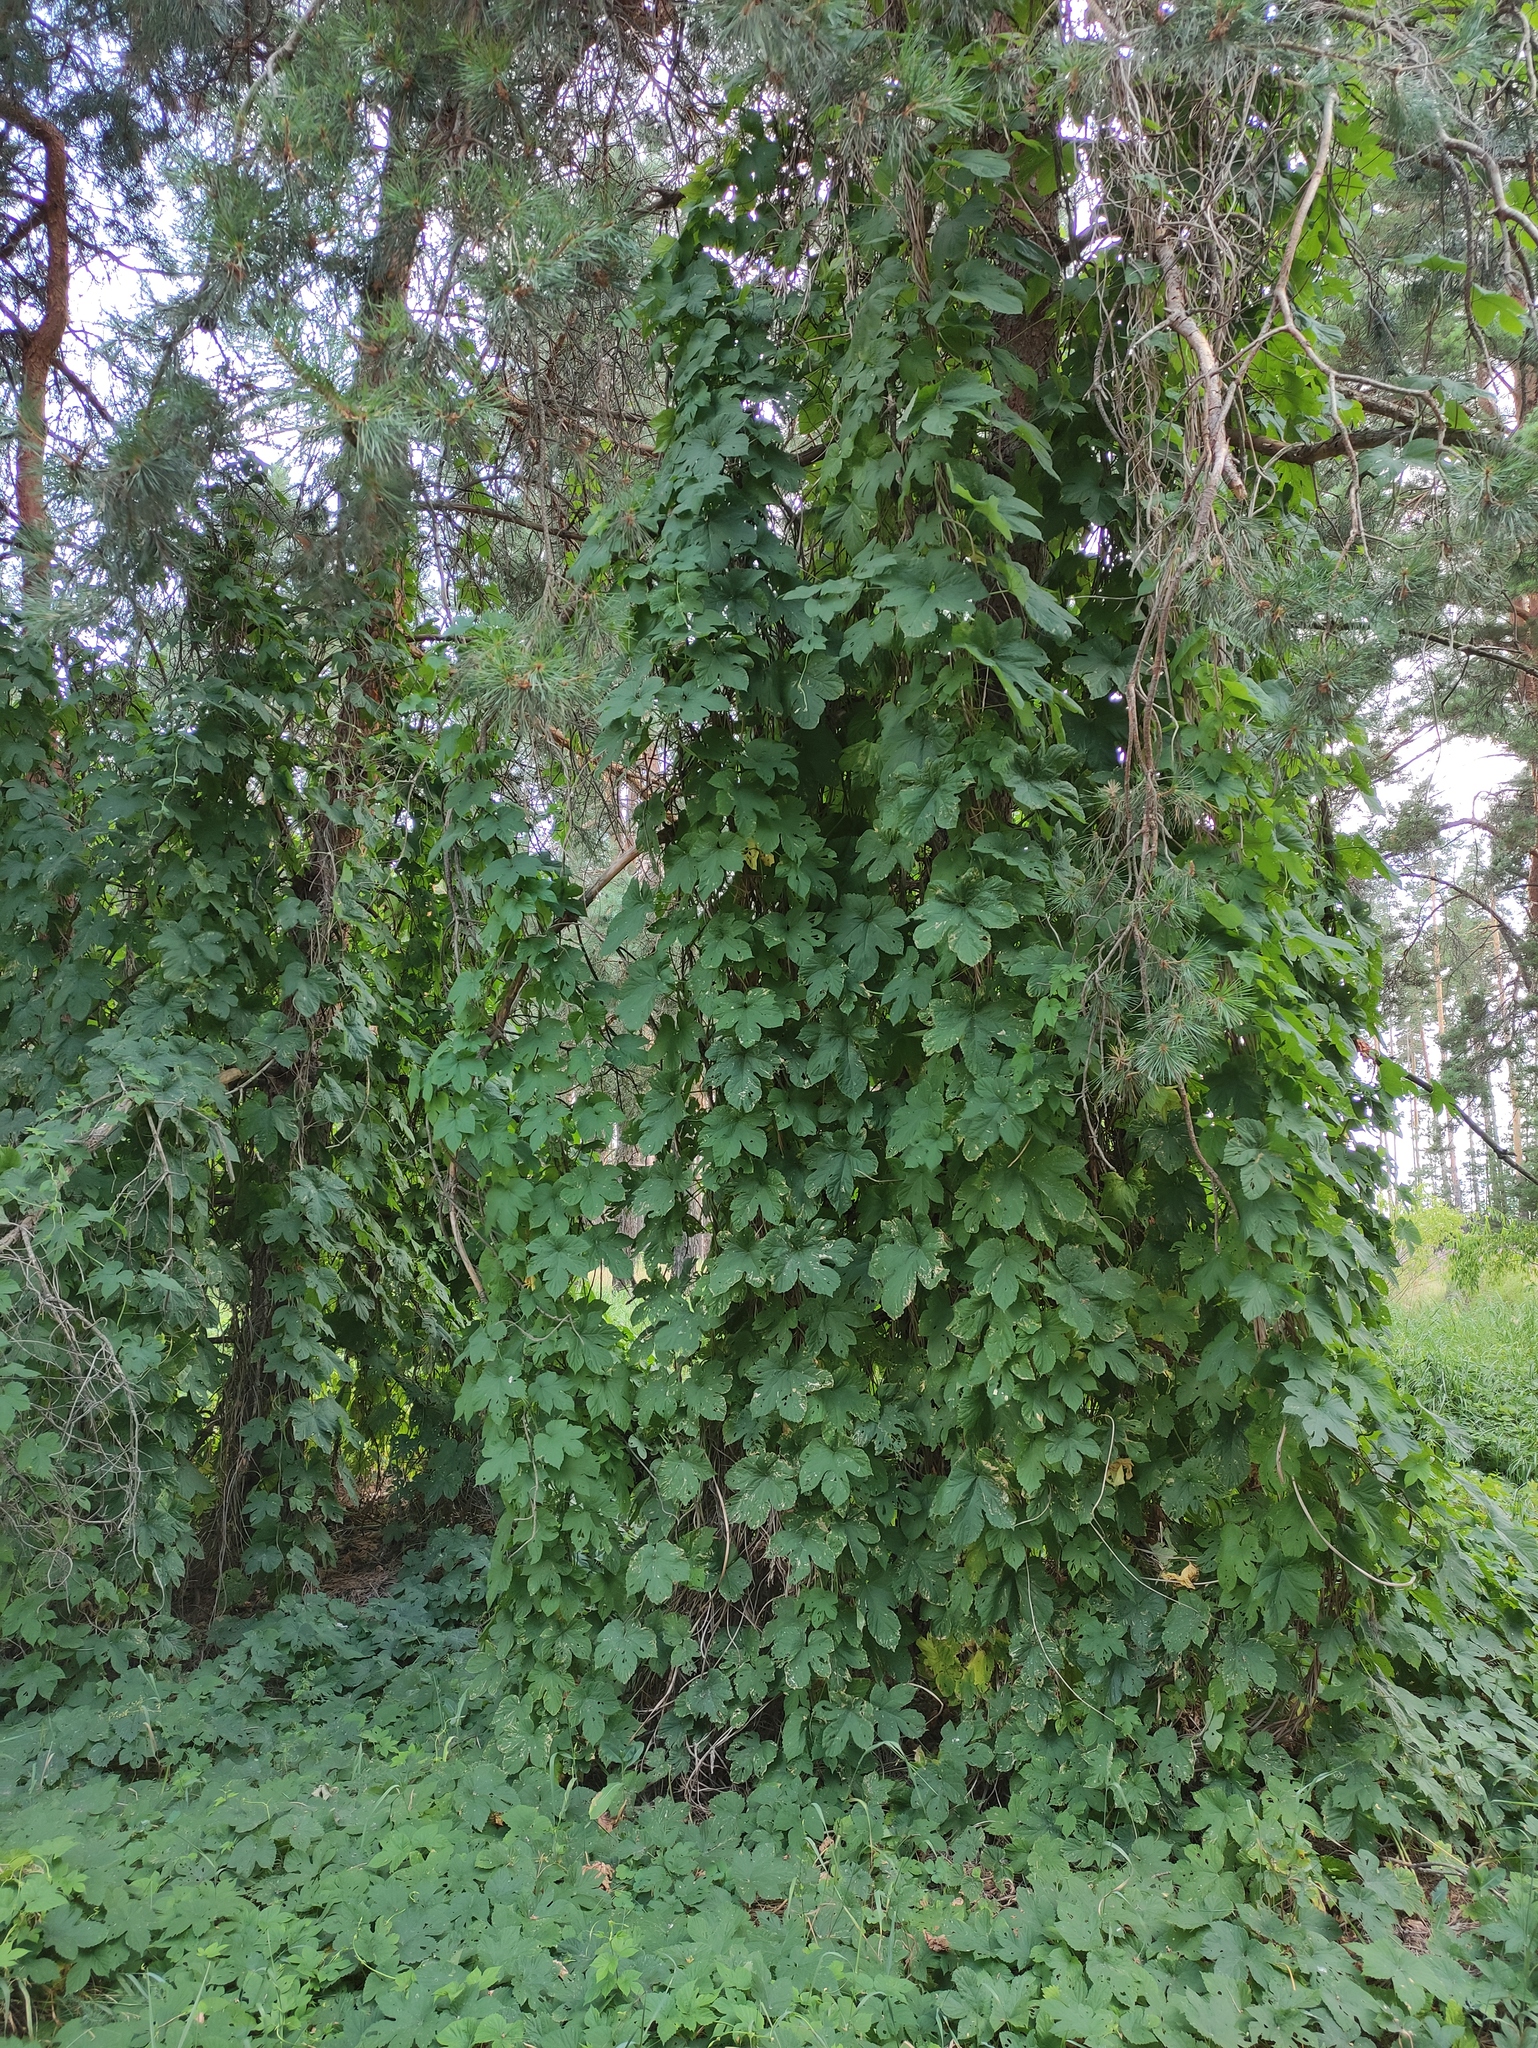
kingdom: Plantae
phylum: Tracheophyta
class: Magnoliopsida
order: Rosales
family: Cannabaceae
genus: Humulus
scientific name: Humulus lupulus
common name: Hop
